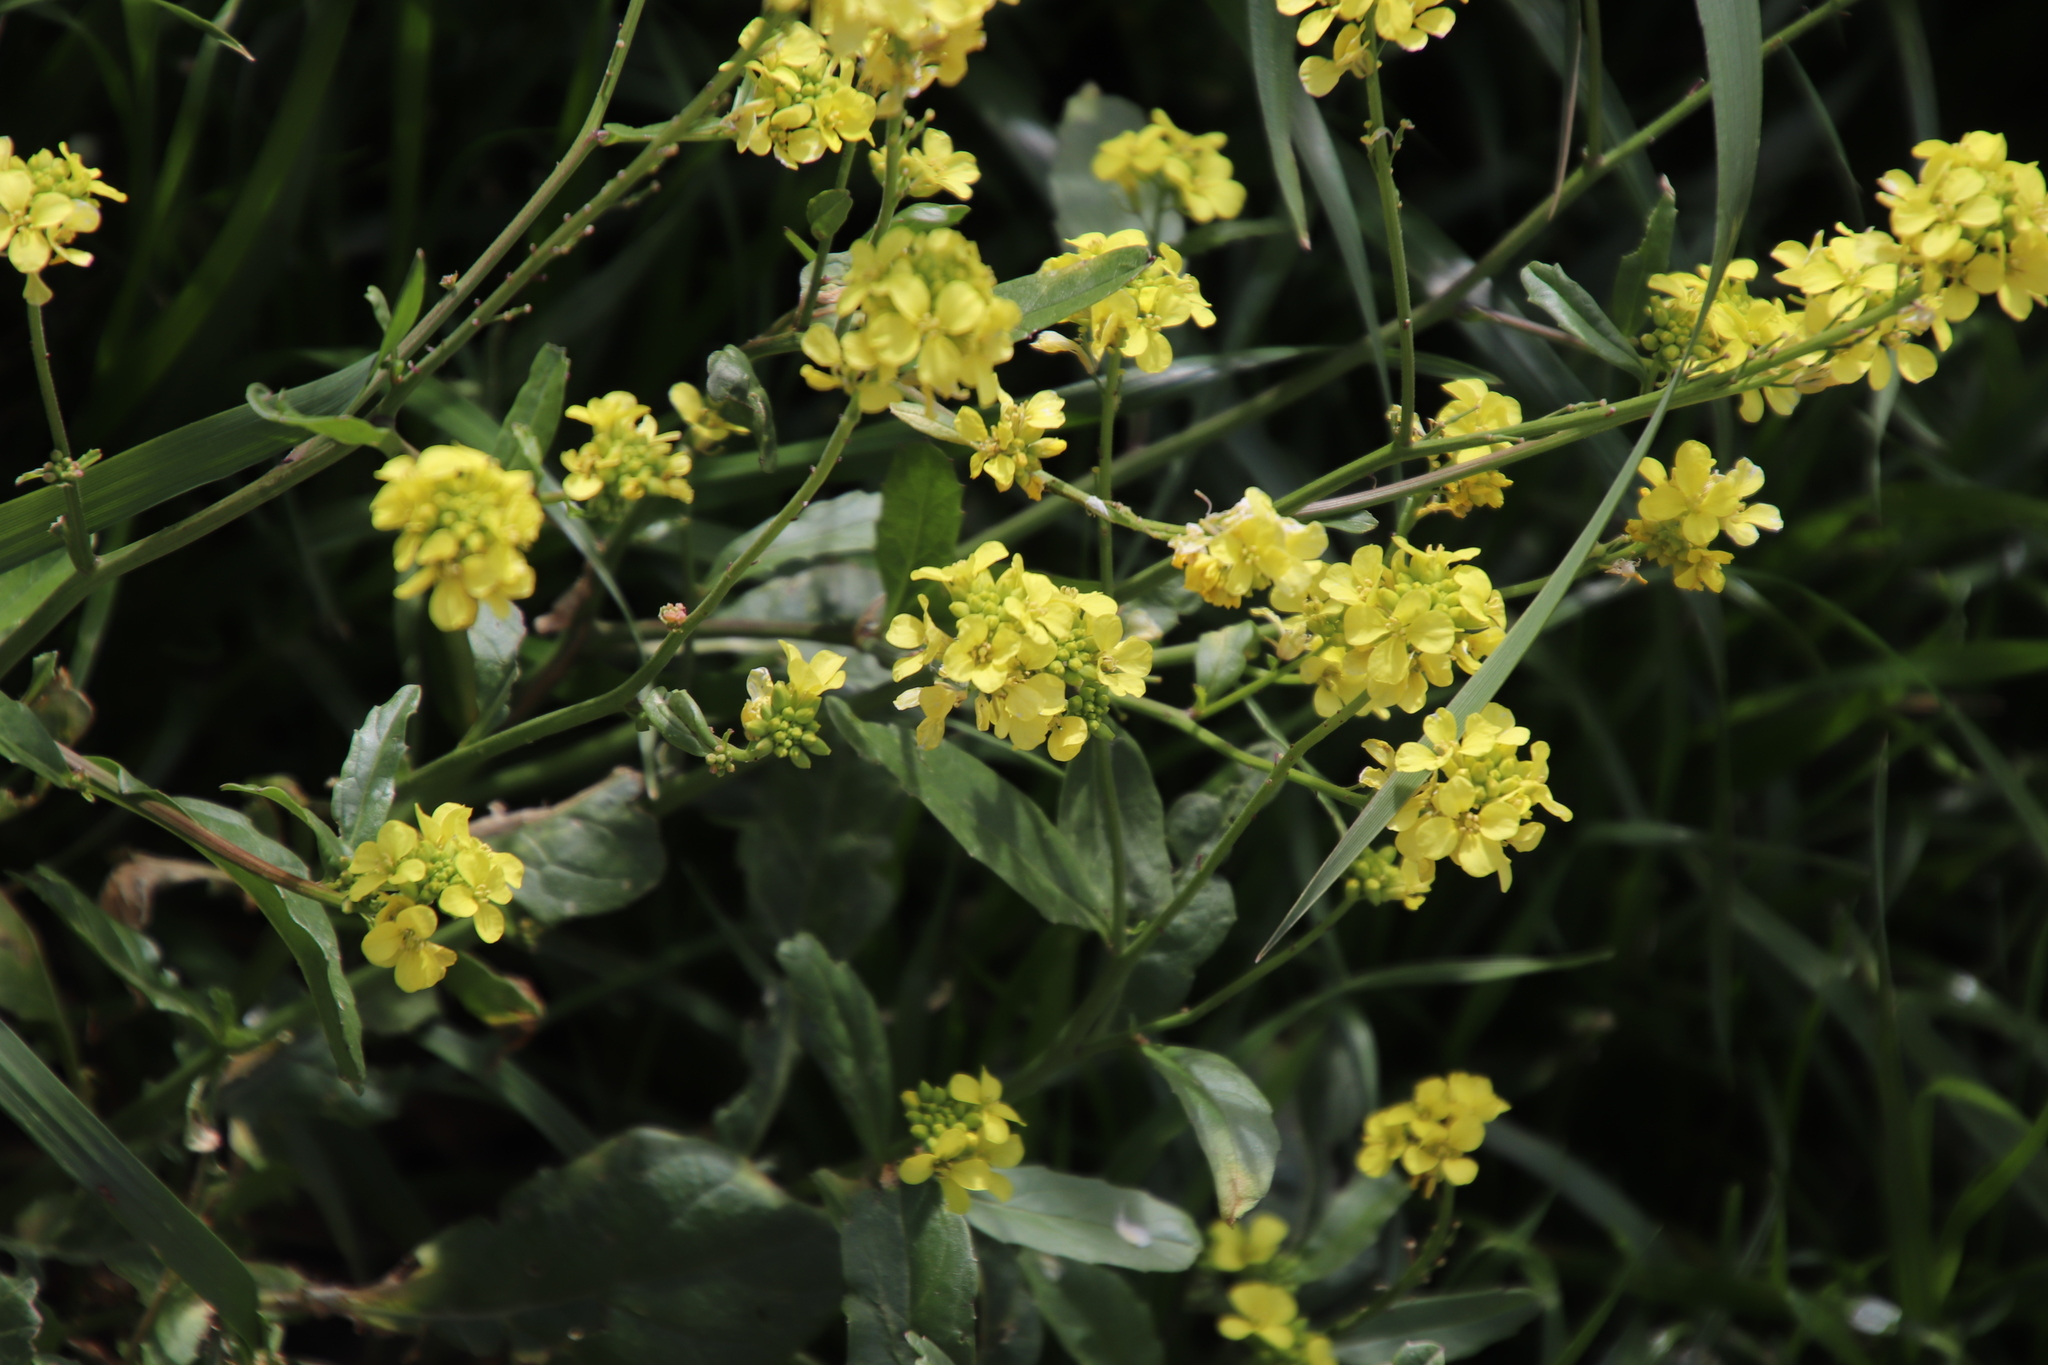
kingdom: Plantae
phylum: Tracheophyta
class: Magnoliopsida
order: Brassicales
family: Brassicaceae
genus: Rapistrum
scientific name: Rapistrum rugosum
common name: Annual bastardcabbage
